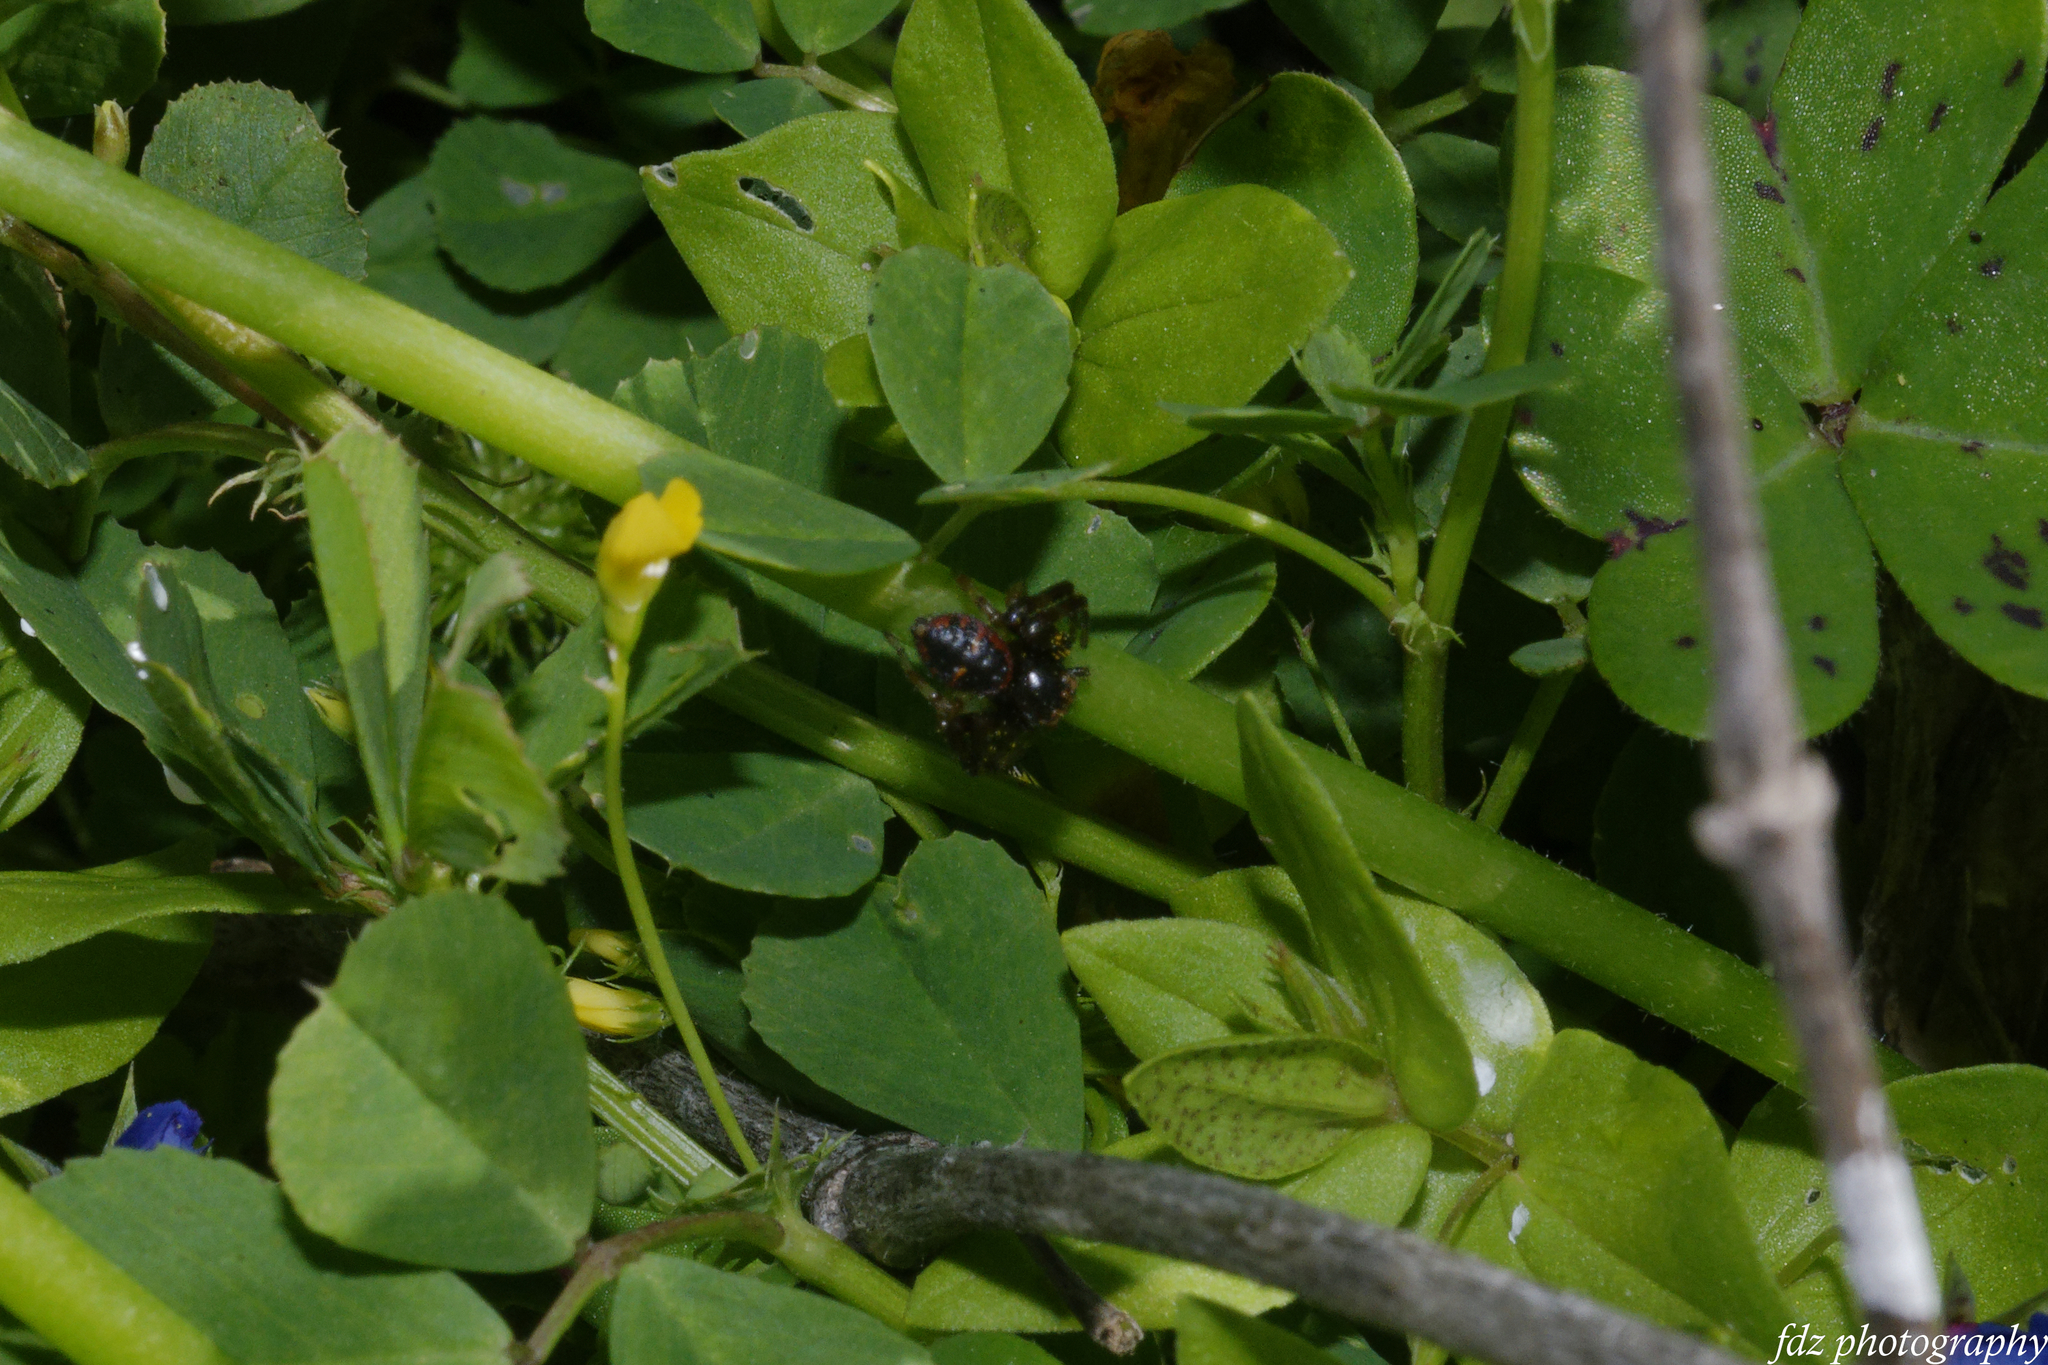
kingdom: Animalia
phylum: Arthropoda
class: Arachnida
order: Araneae
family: Thomisidae
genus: Synema
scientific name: Synema globosum
